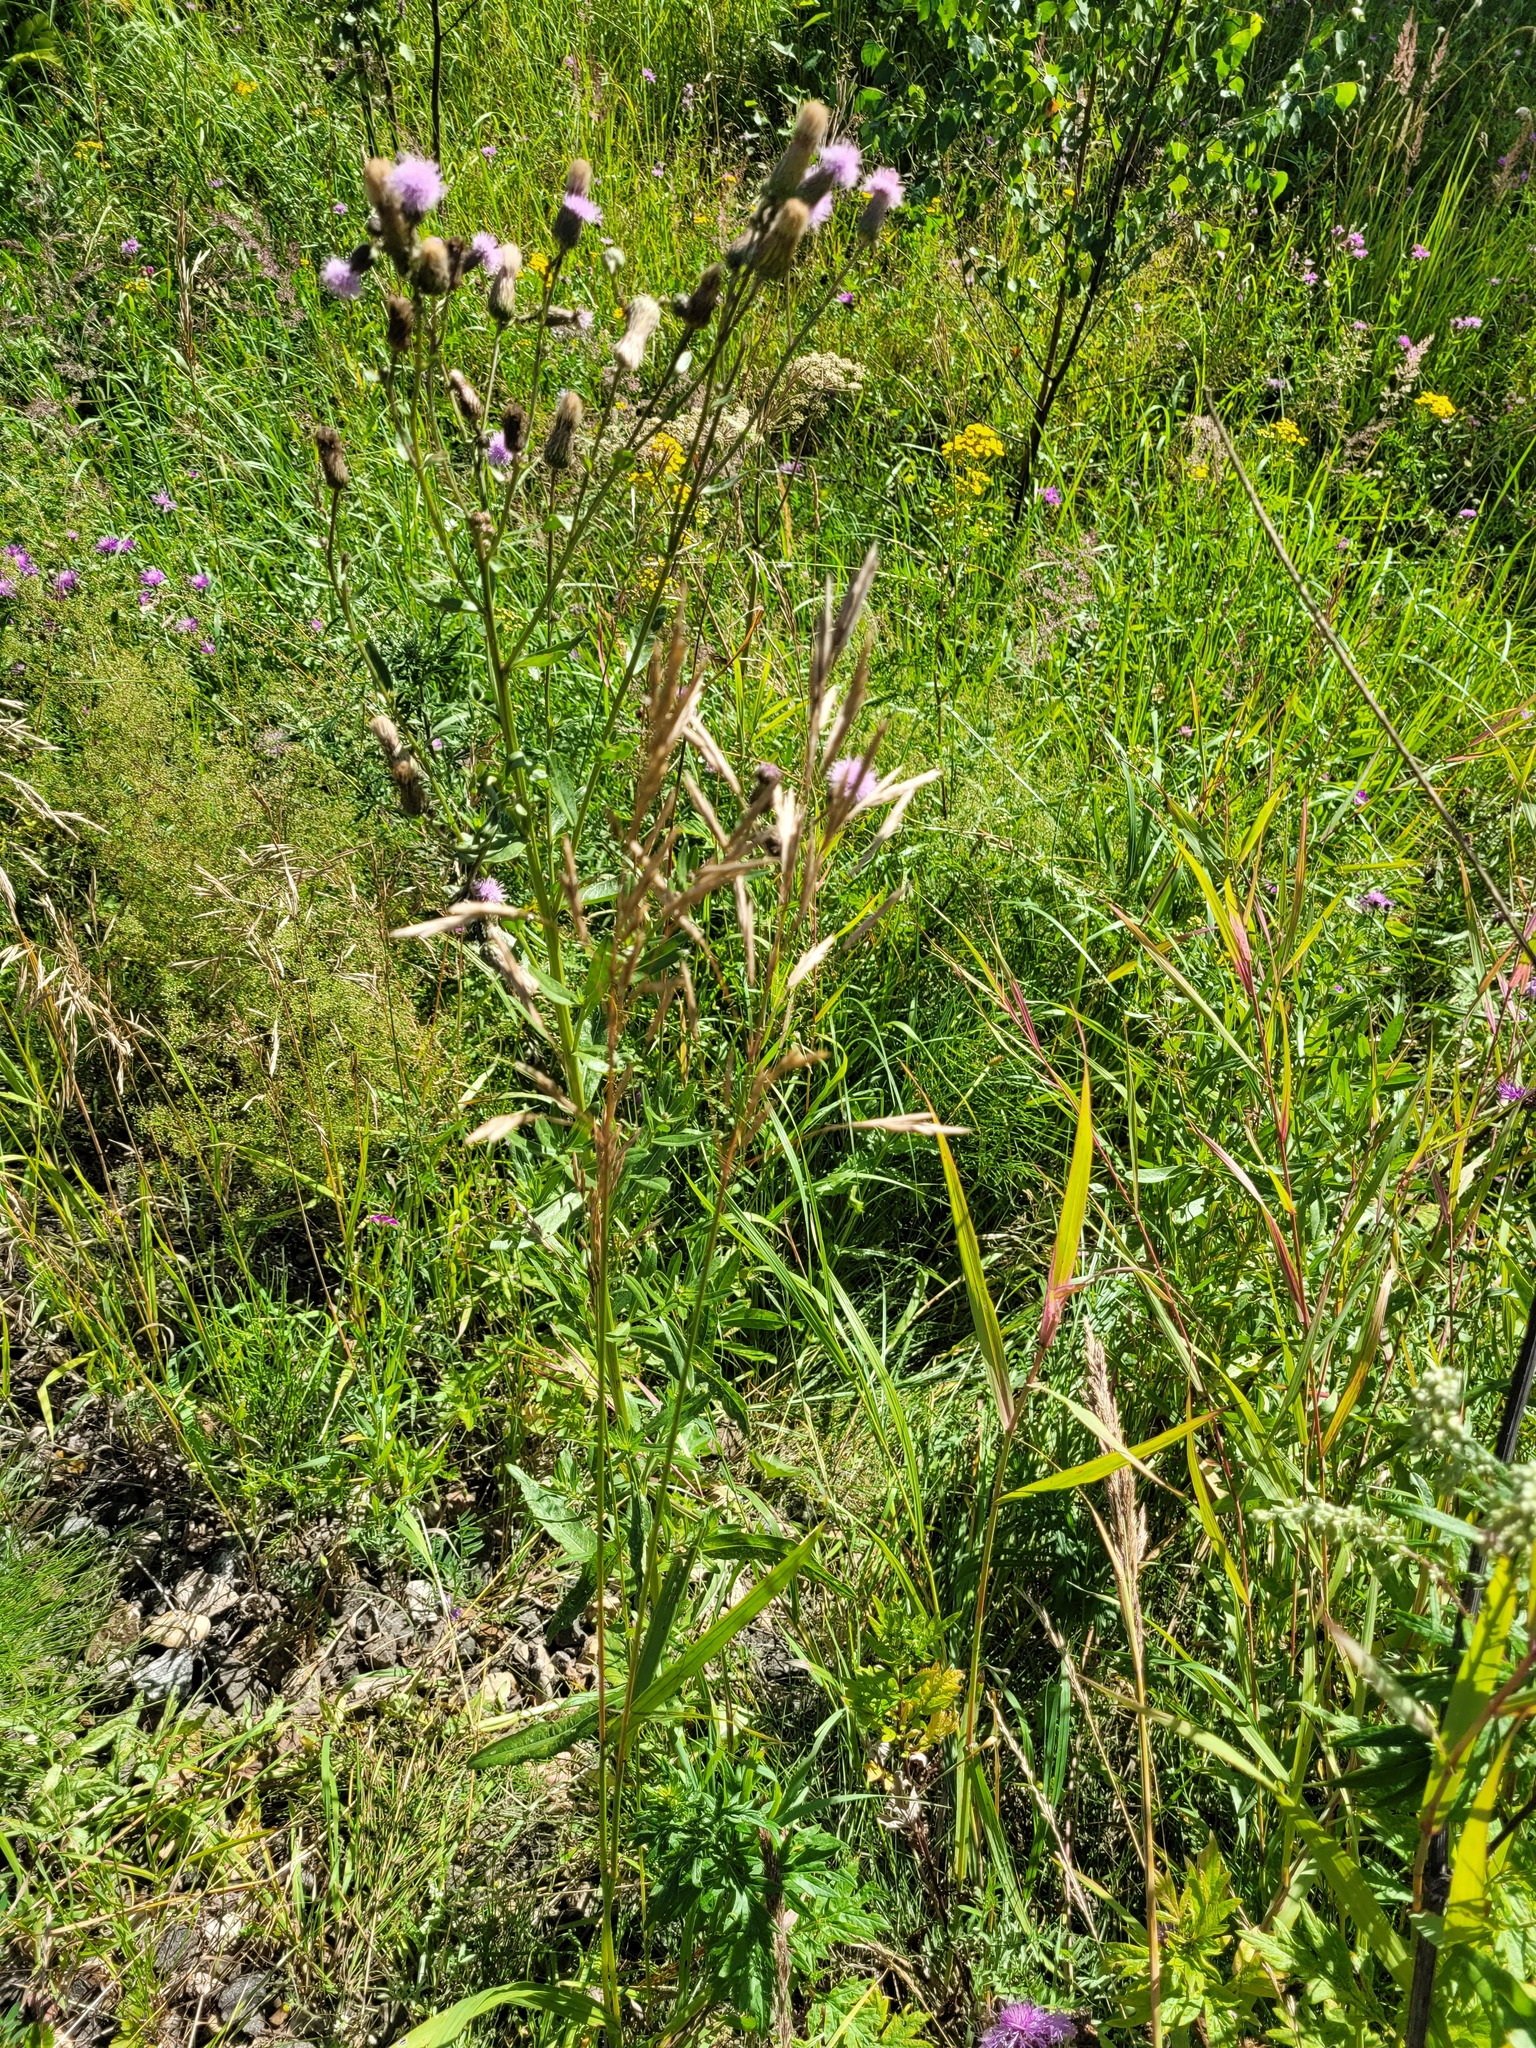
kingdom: Plantae
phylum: Tracheophyta
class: Liliopsida
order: Poales
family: Poaceae
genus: Bromus
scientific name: Bromus inermis
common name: Smooth brome
